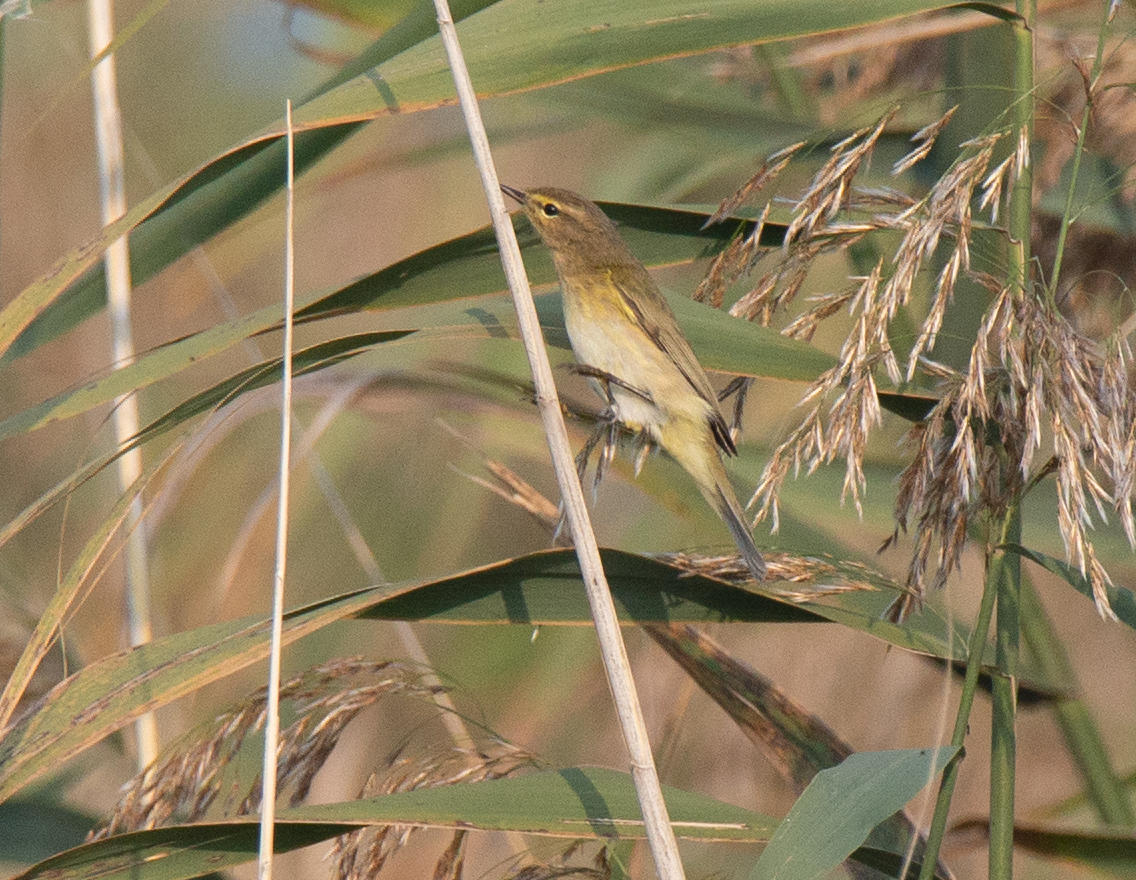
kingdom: Animalia
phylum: Chordata
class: Aves
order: Passeriformes
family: Phylloscopidae
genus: Phylloscopus
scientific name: Phylloscopus collybita
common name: Common chiffchaff
